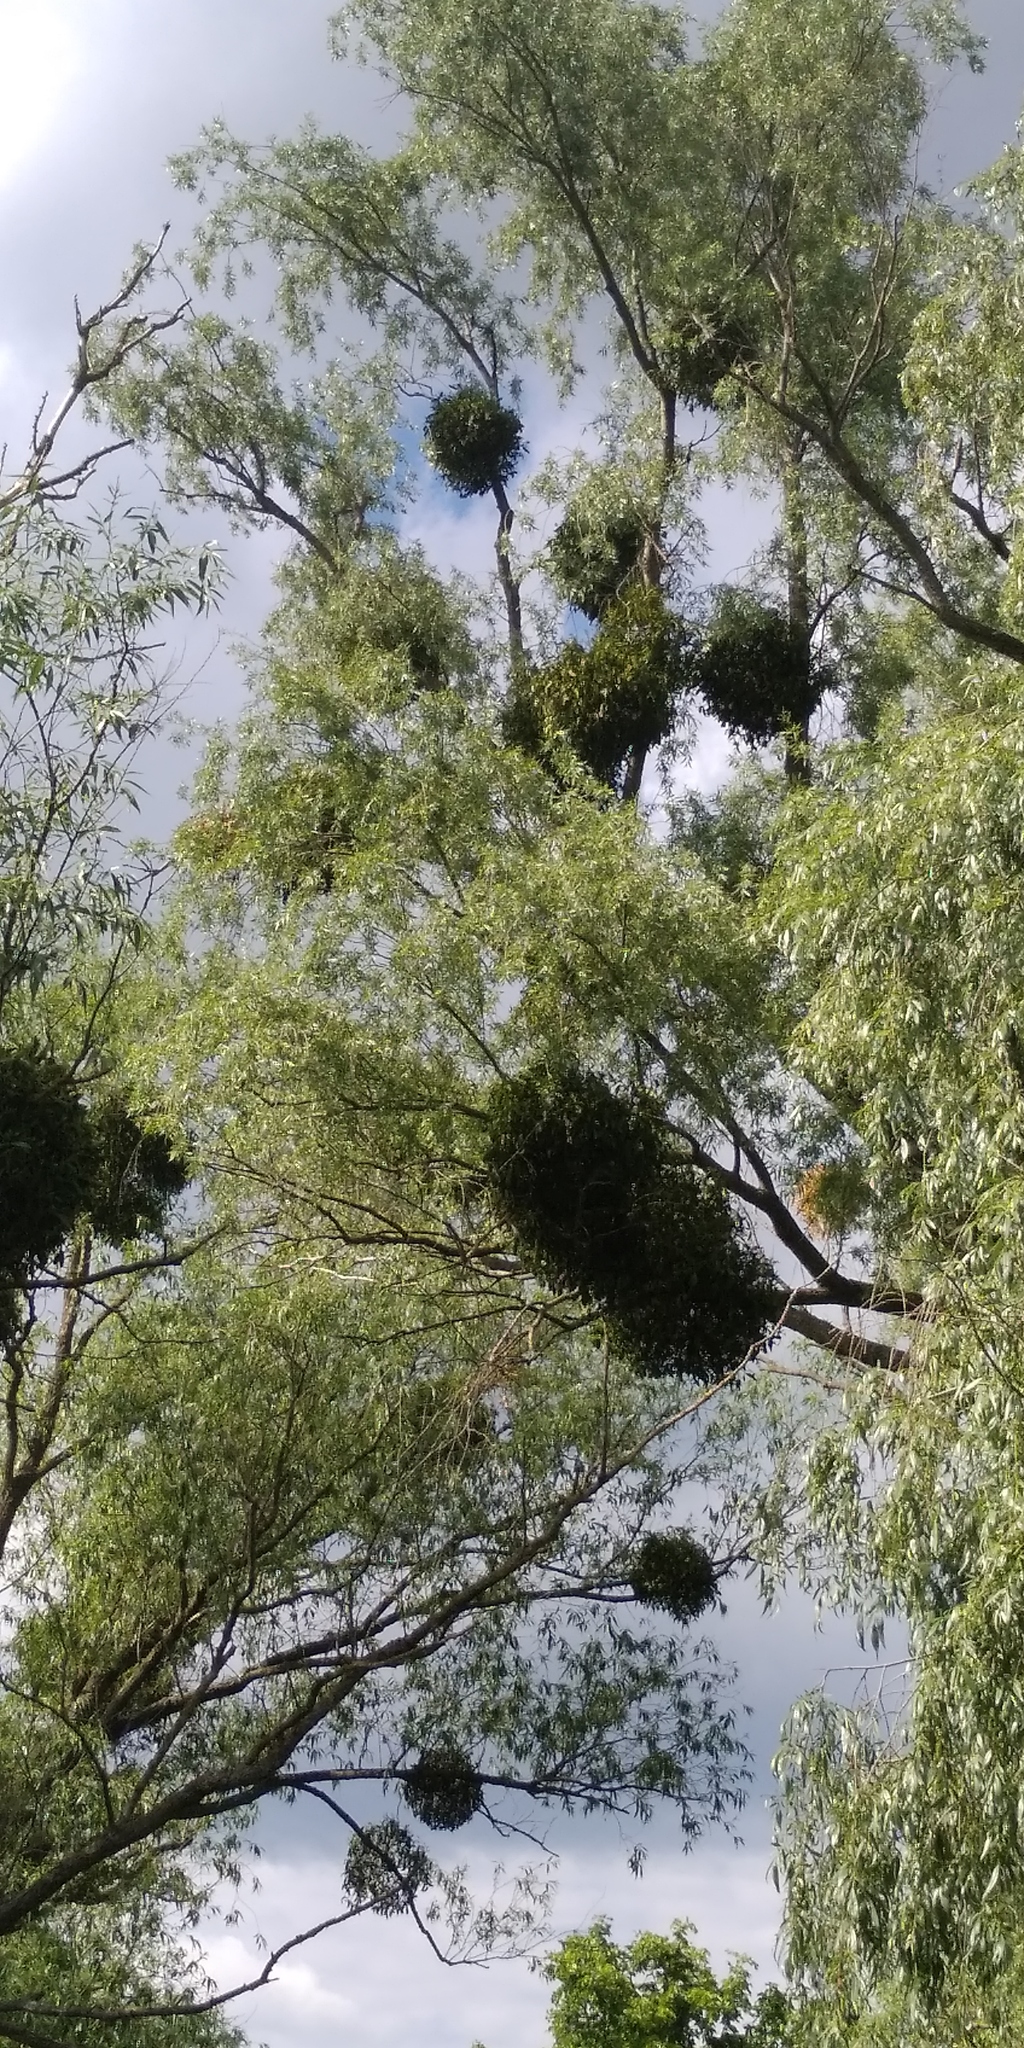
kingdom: Plantae
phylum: Tracheophyta
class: Magnoliopsida
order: Santalales
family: Viscaceae
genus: Viscum
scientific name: Viscum album
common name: Mistletoe
